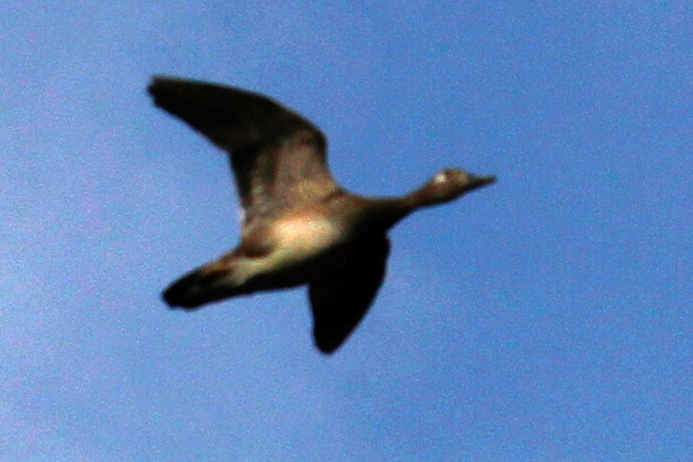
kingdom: Animalia
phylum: Chordata
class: Aves
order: Anseriformes
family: Anatidae
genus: Aix
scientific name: Aix sponsa
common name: Wood duck
